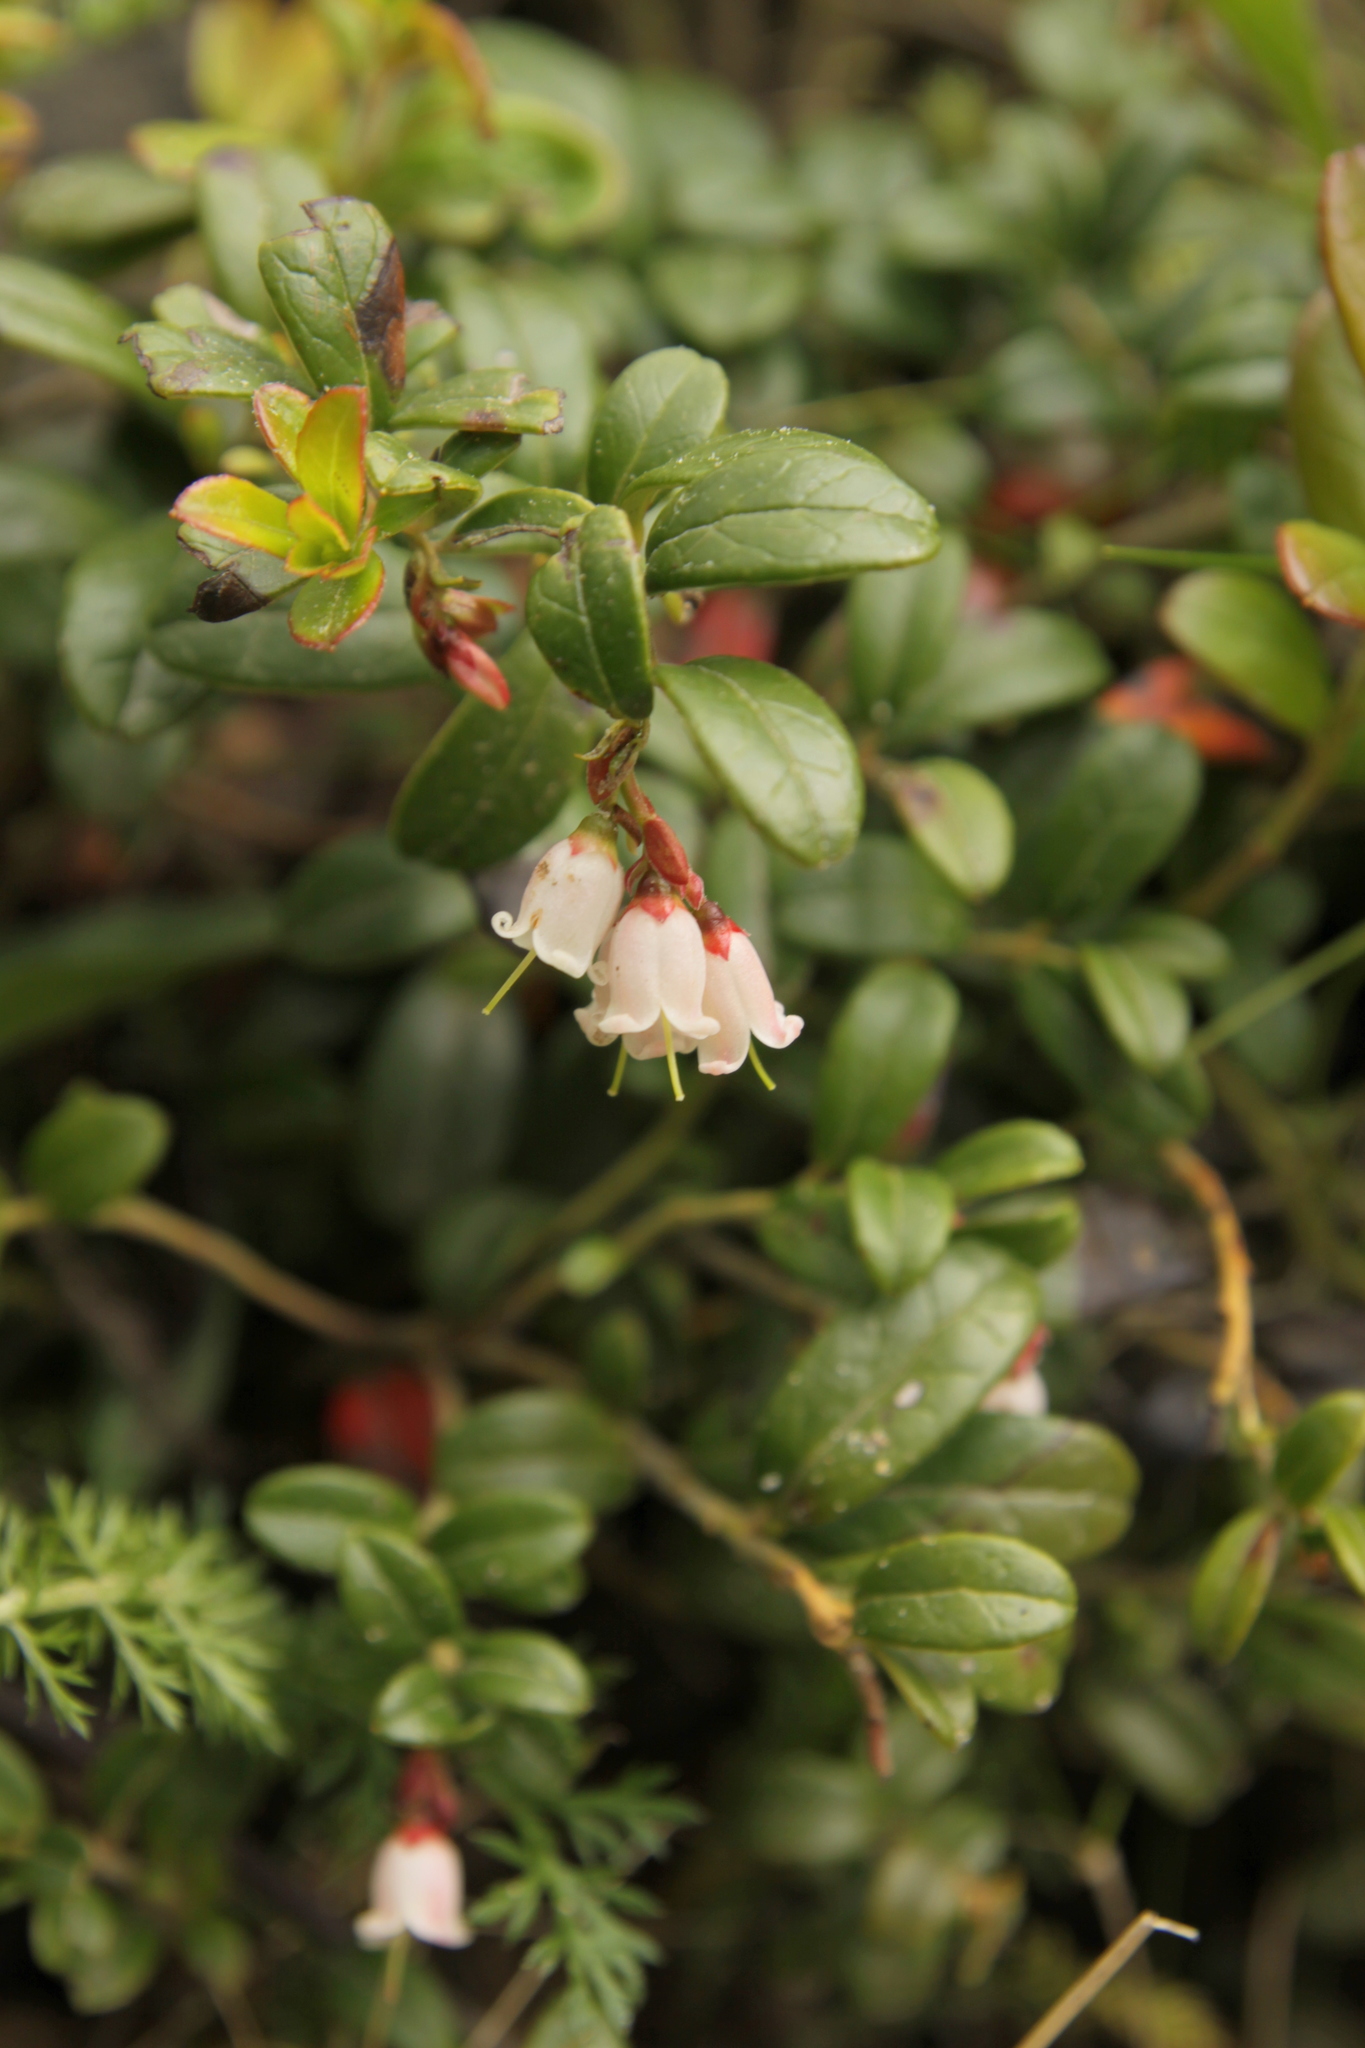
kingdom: Plantae
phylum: Tracheophyta
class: Magnoliopsida
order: Ericales
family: Ericaceae
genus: Vaccinium
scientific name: Vaccinium vitis-idaea
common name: Cowberry
